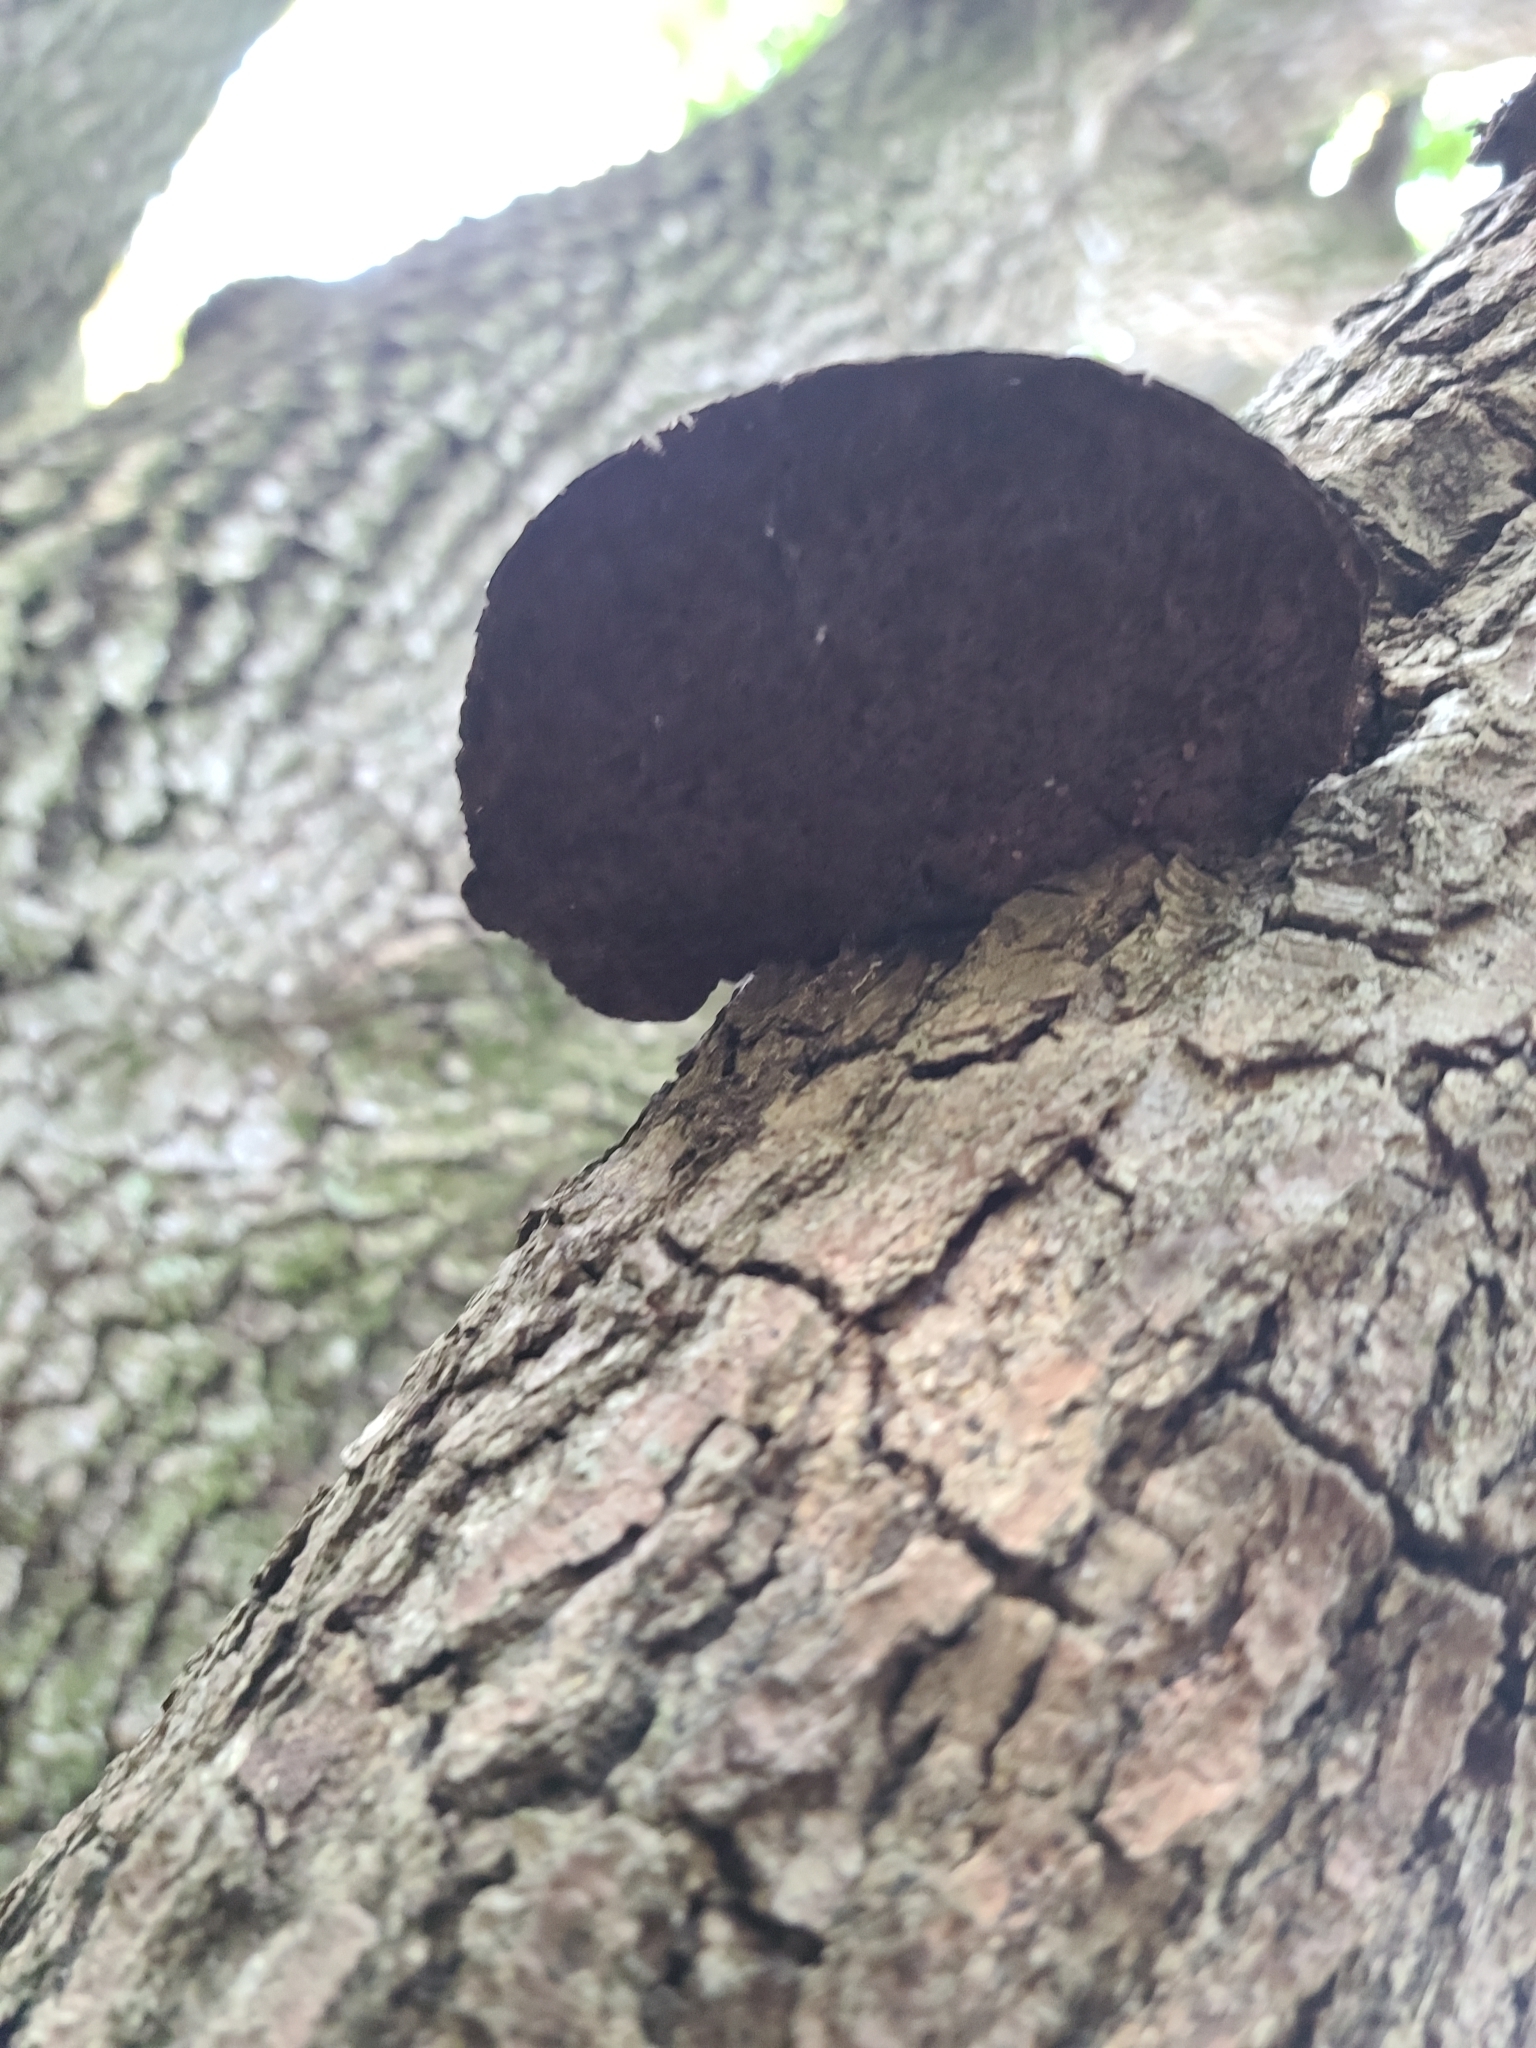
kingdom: Fungi
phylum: Basidiomycota
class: Agaricomycetes
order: Polyporales
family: Cerrenaceae
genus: Cerrena
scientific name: Cerrena hydnoides
